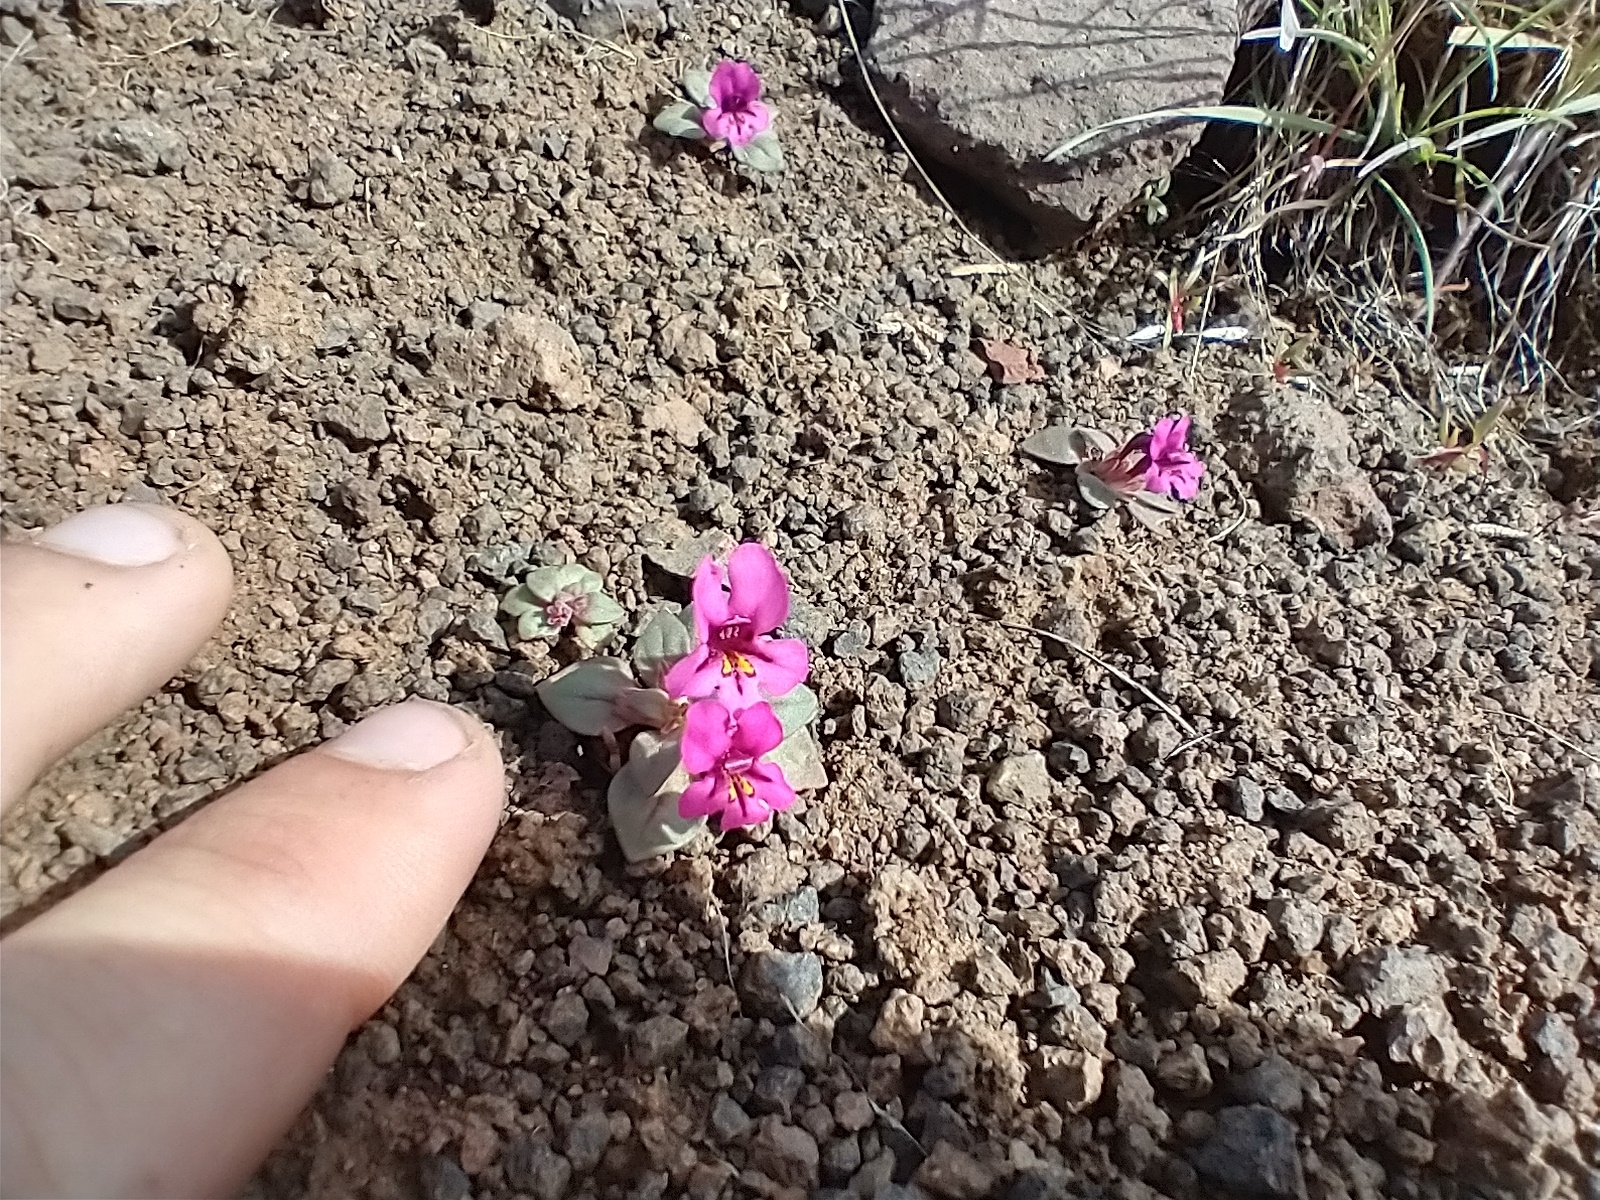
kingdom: Plantae
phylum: Tracheophyta
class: Magnoliopsida
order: Lamiales
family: Phrymaceae
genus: Diplacus
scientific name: Diplacus cusickioides
